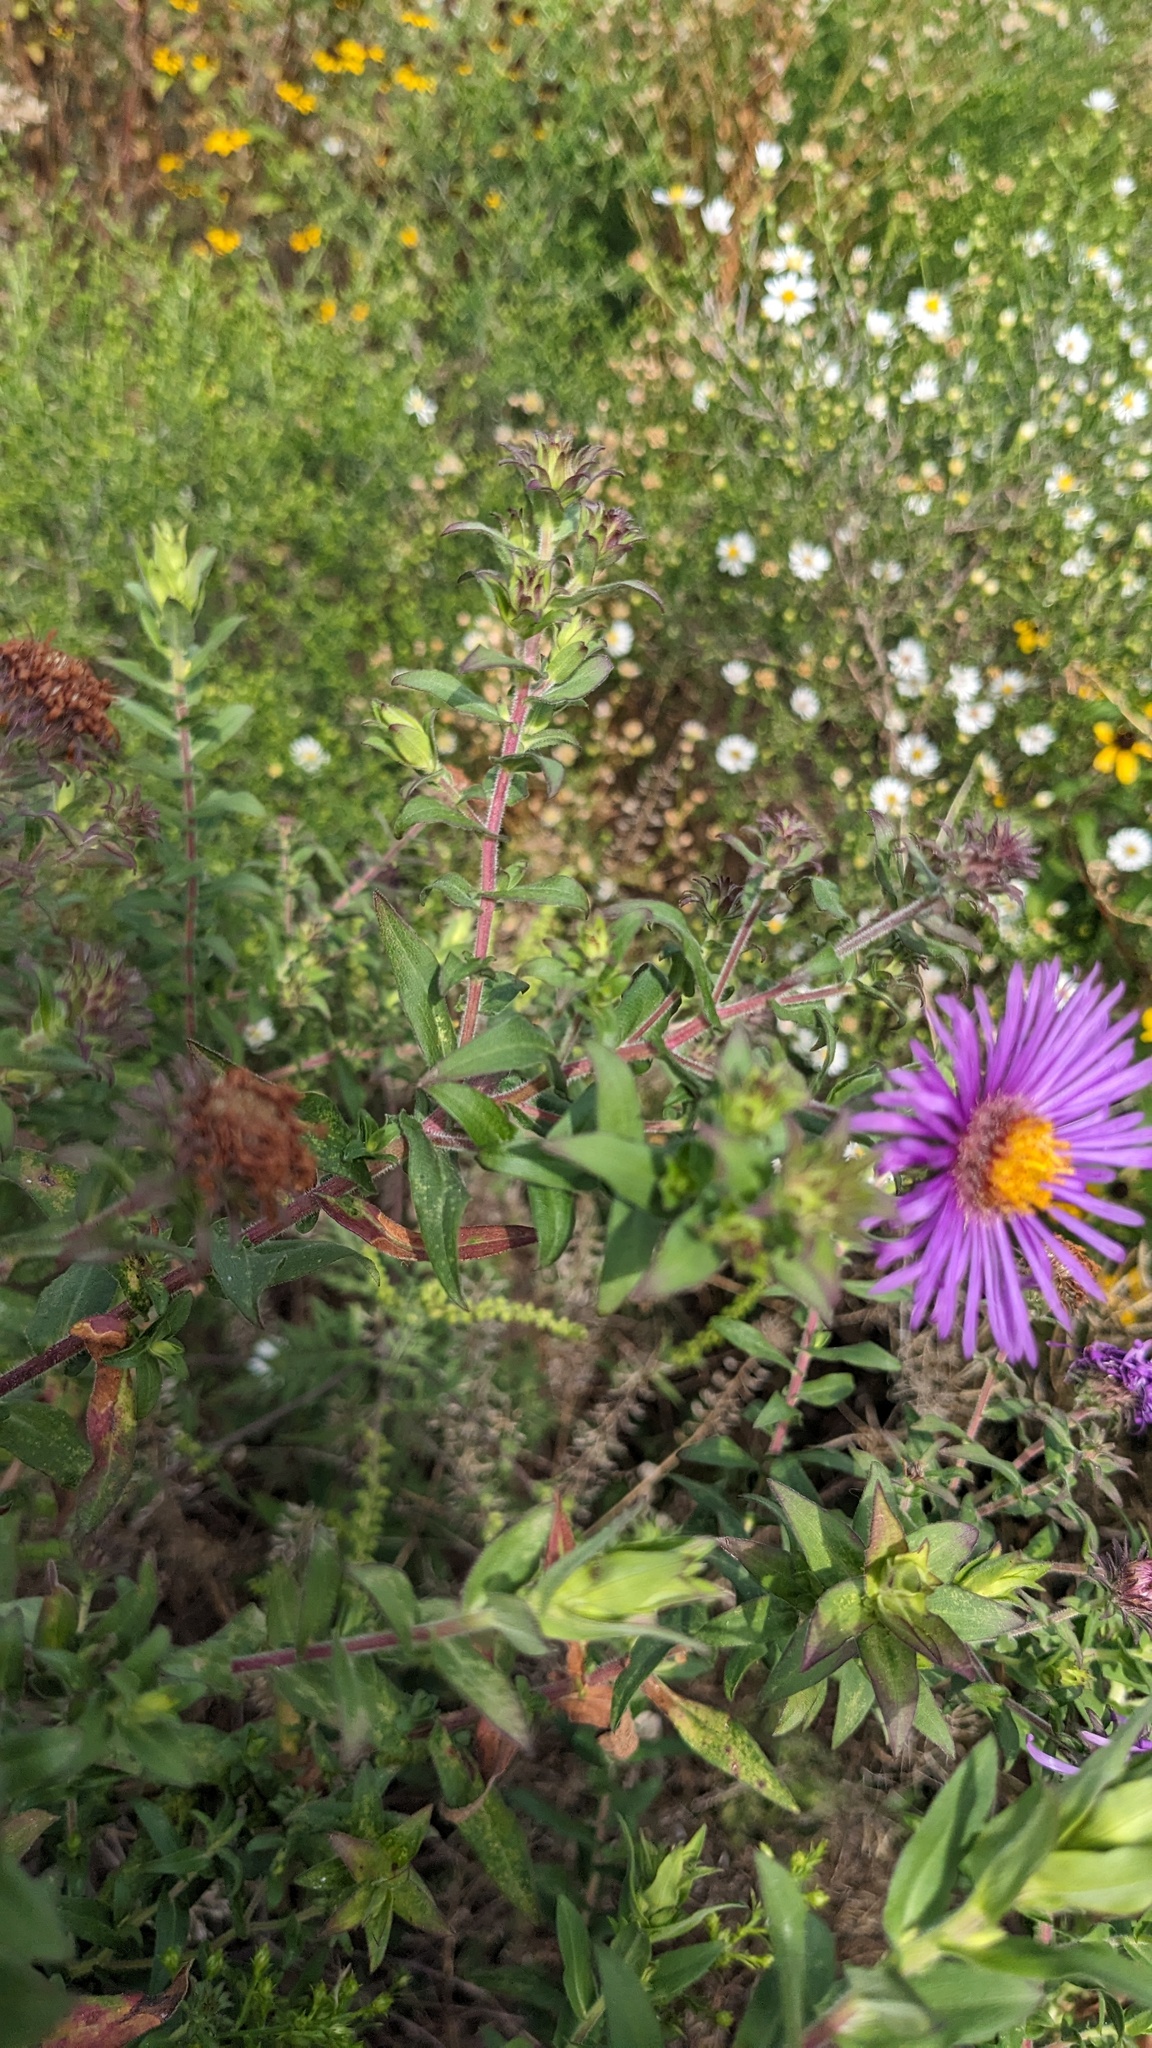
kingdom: Plantae
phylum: Tracheophyta
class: Magnoliopsida
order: Asterales
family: Asteraceae
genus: Symphyotrichum
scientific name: Symphyotrichum novae-angliae
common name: Michaelmas daisy
